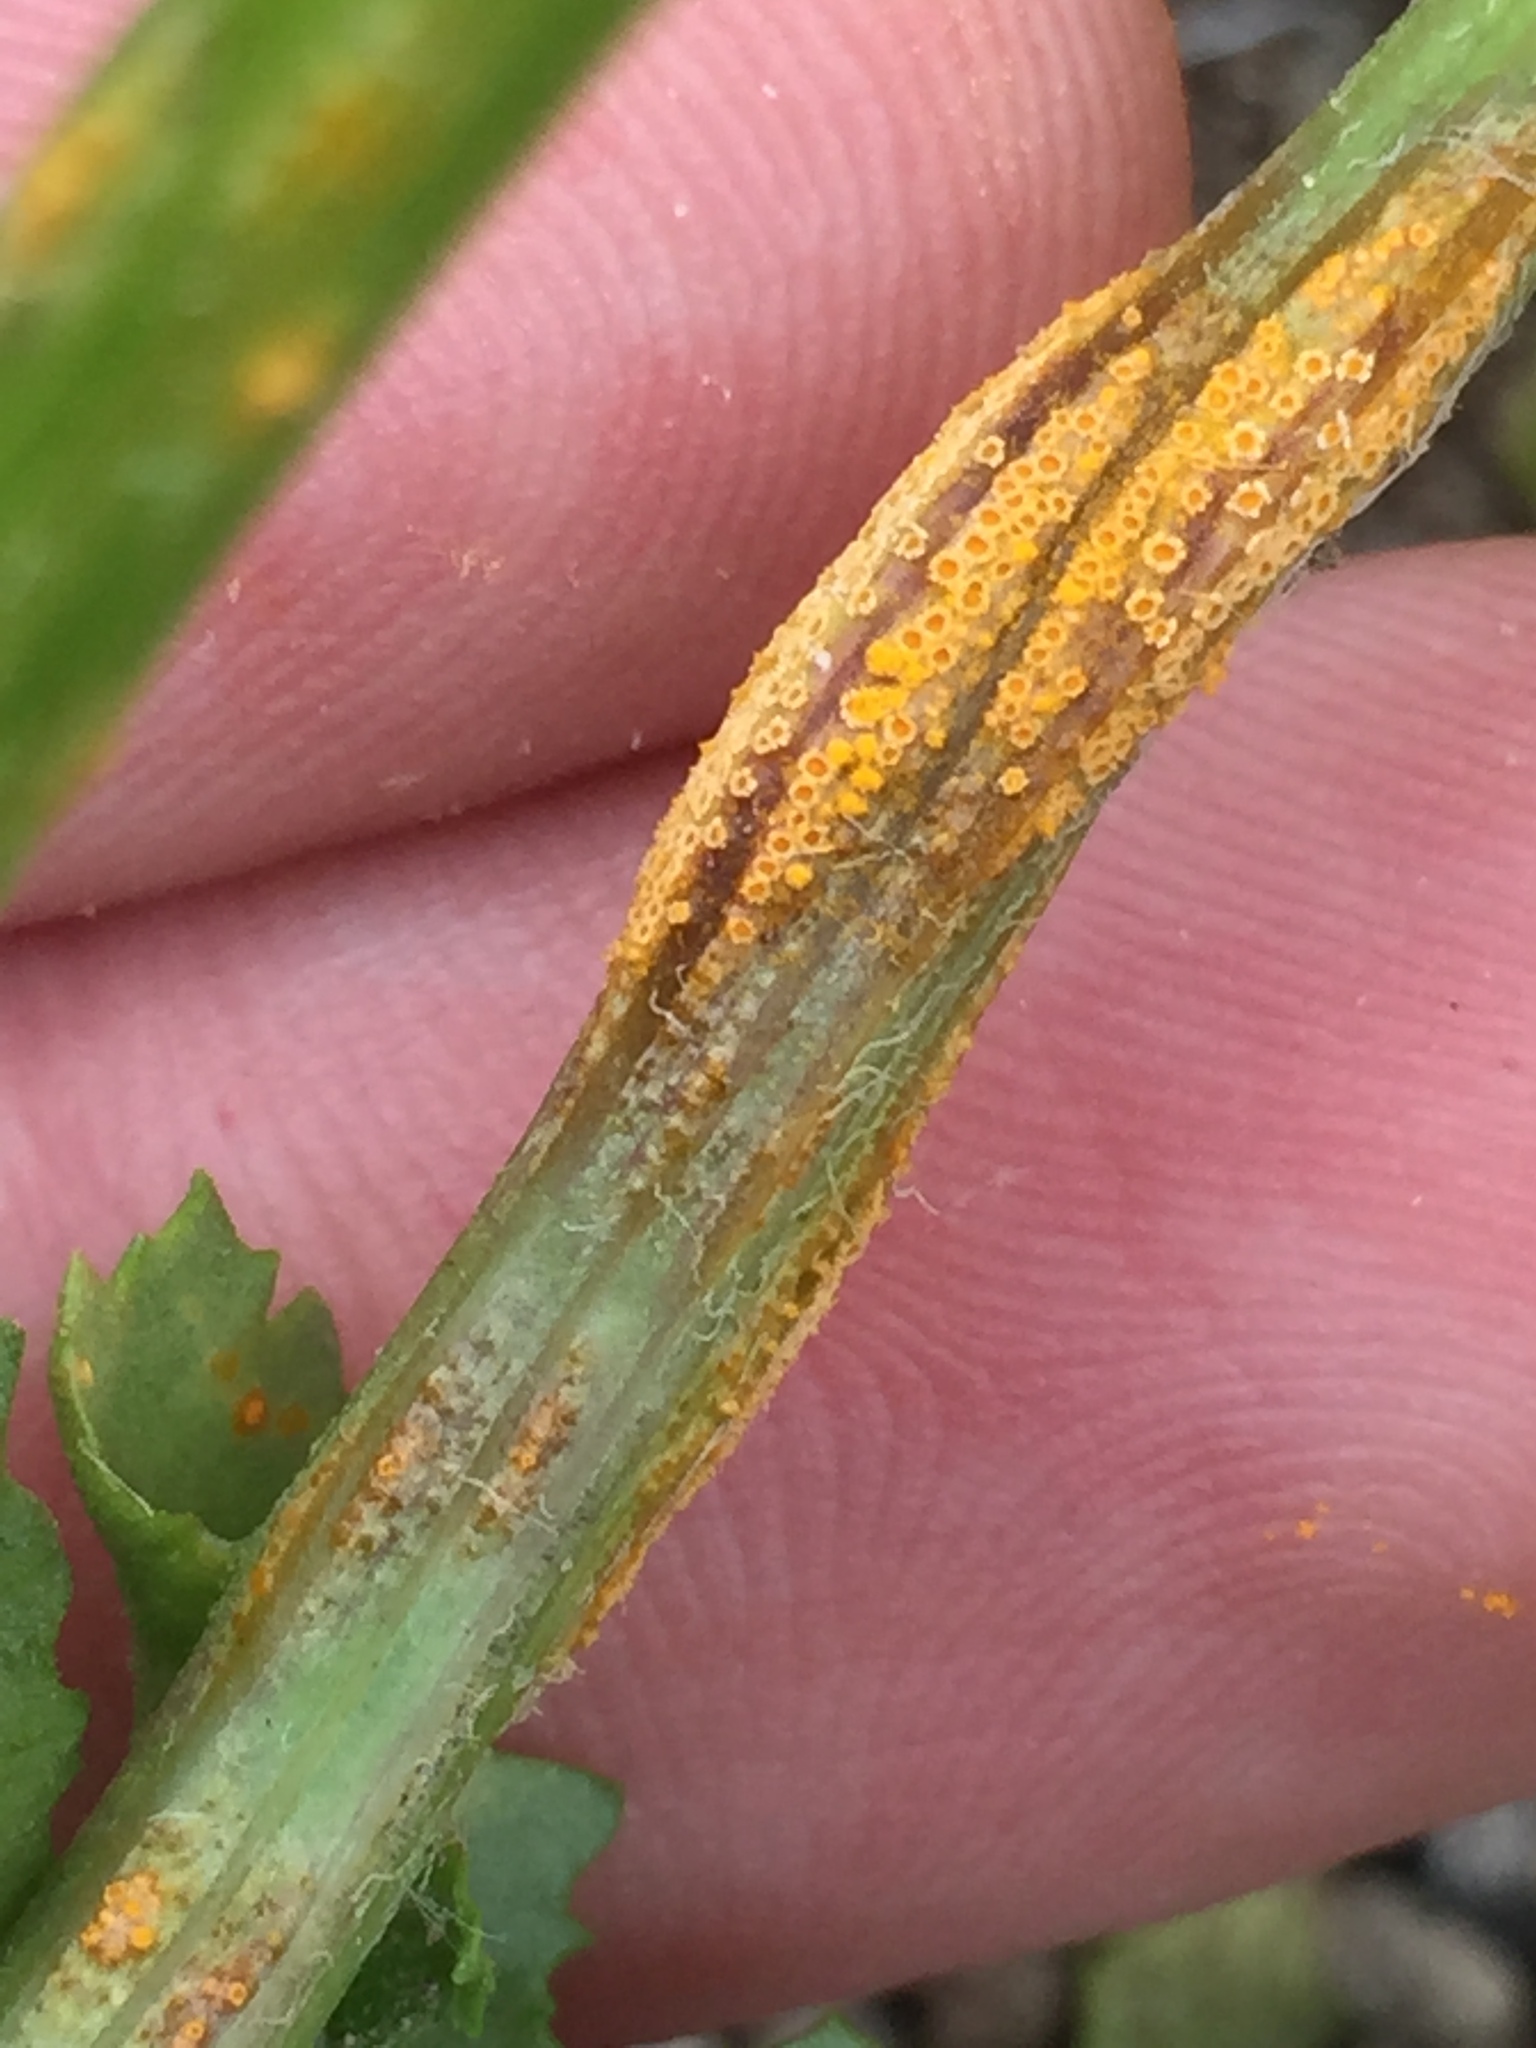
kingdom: Fungi
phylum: Basidiomycota
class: Pucciniomycetes
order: Pucciniales
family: Pucciniaceae
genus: Puccinia
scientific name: Puccinia lagenophorae
